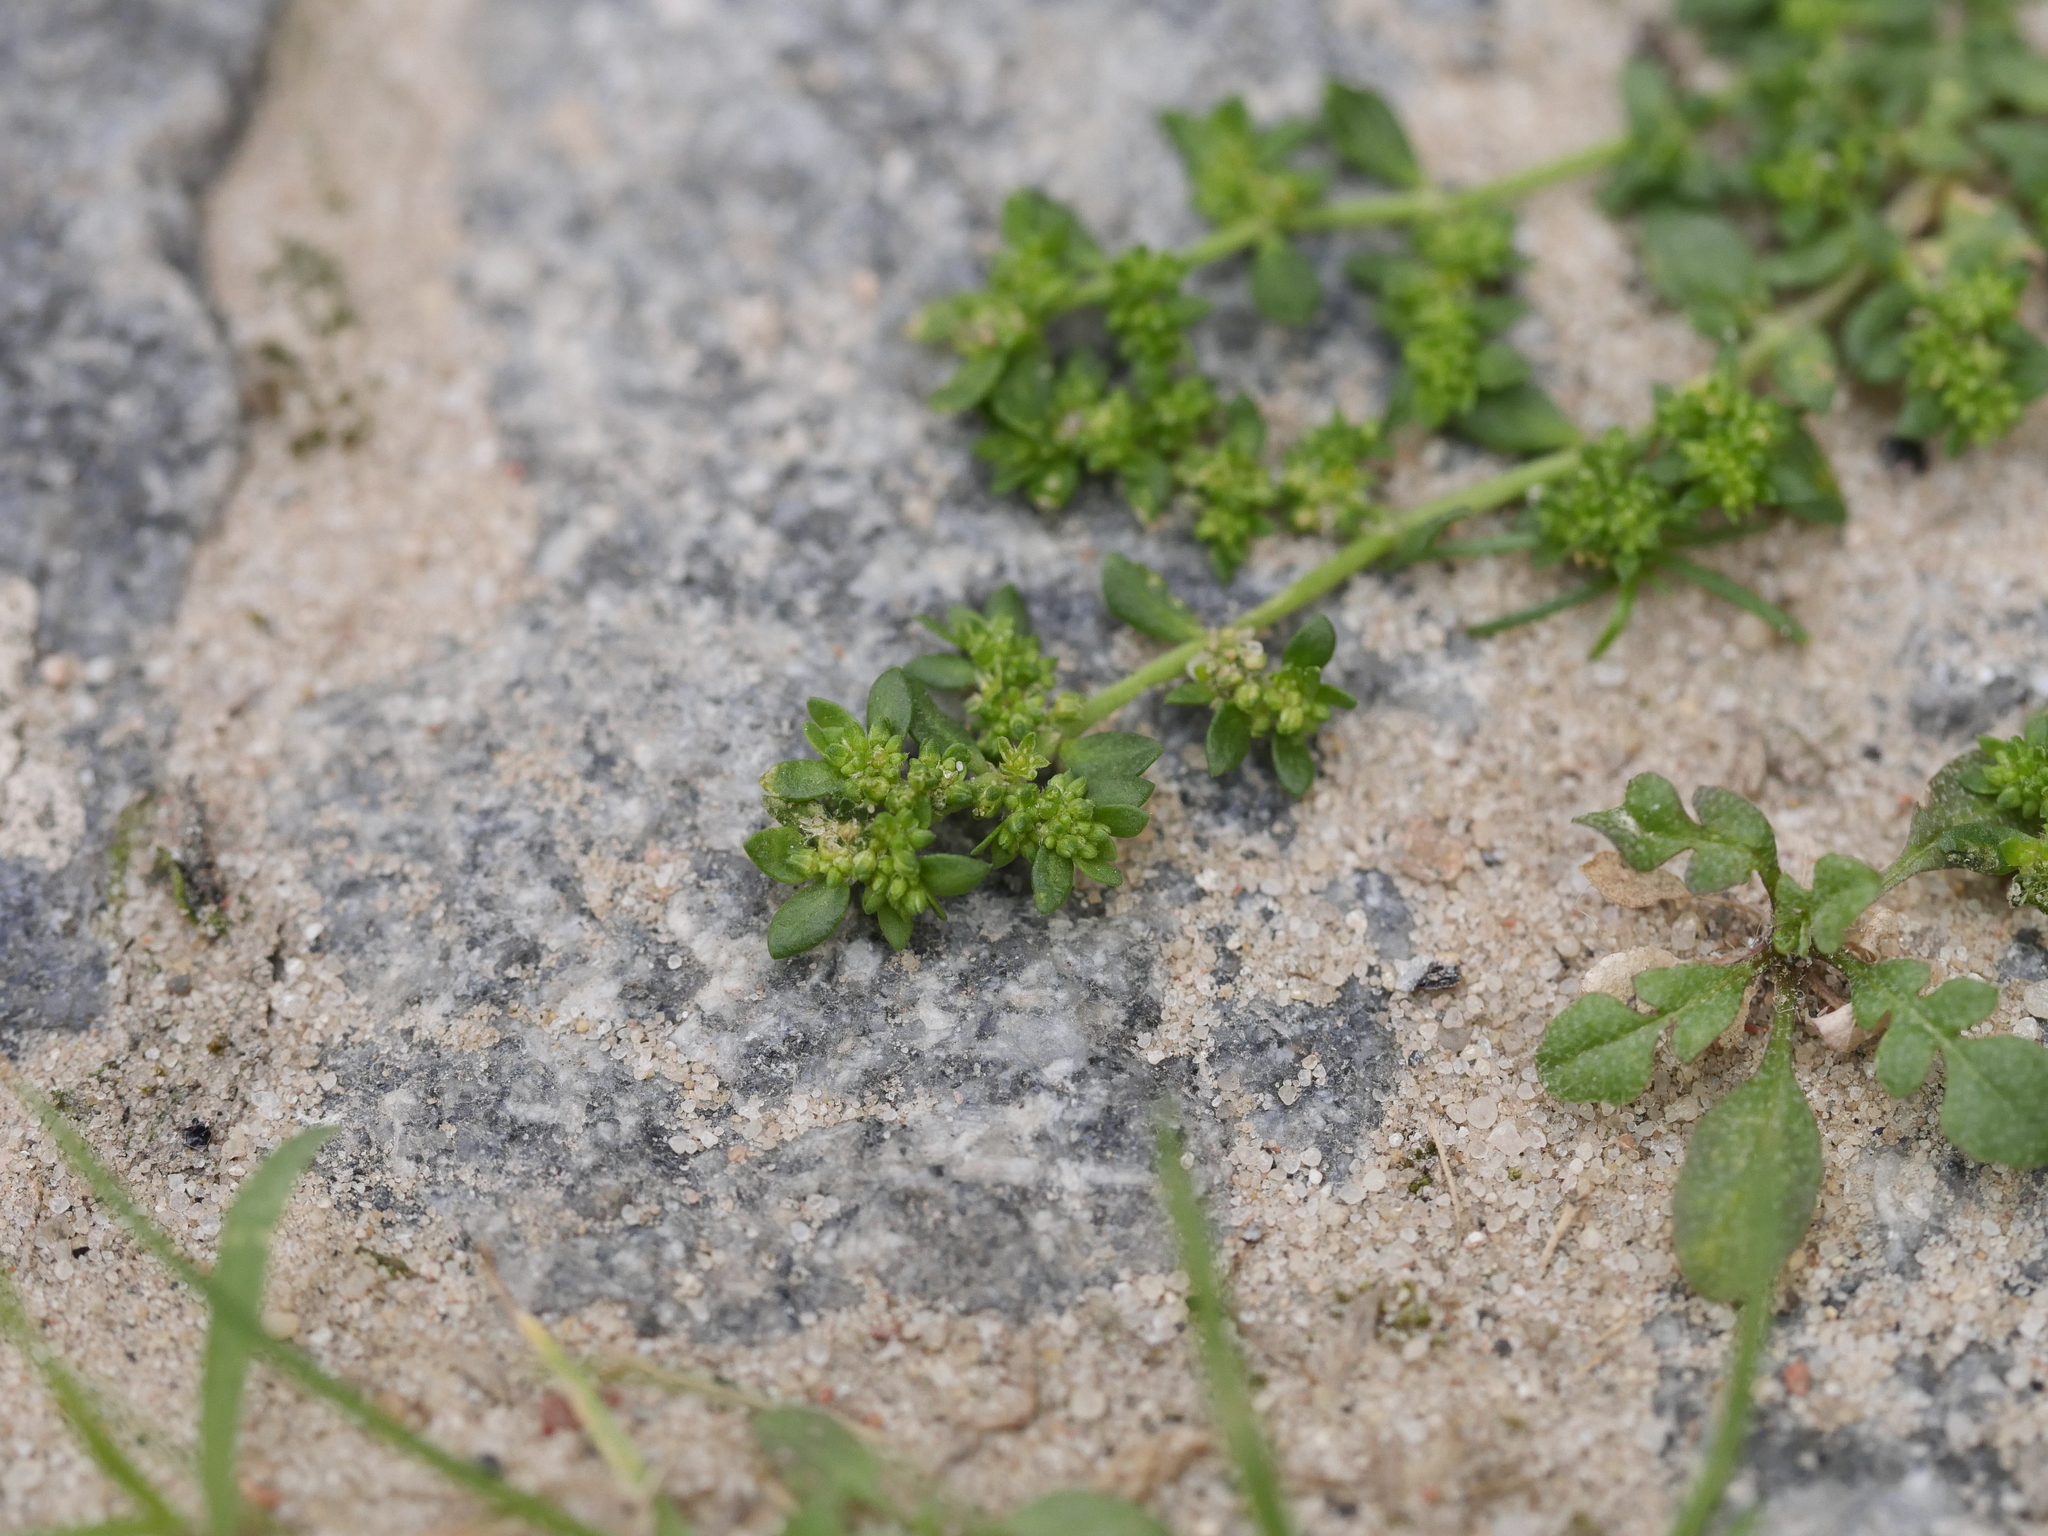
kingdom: Plantae
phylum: Tracheophyta
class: Magnoliopsida
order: Caryophyllales
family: Caryophyllaceae
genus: Herniaria
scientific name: Herniaria glabra
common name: Smooth rupturewort
